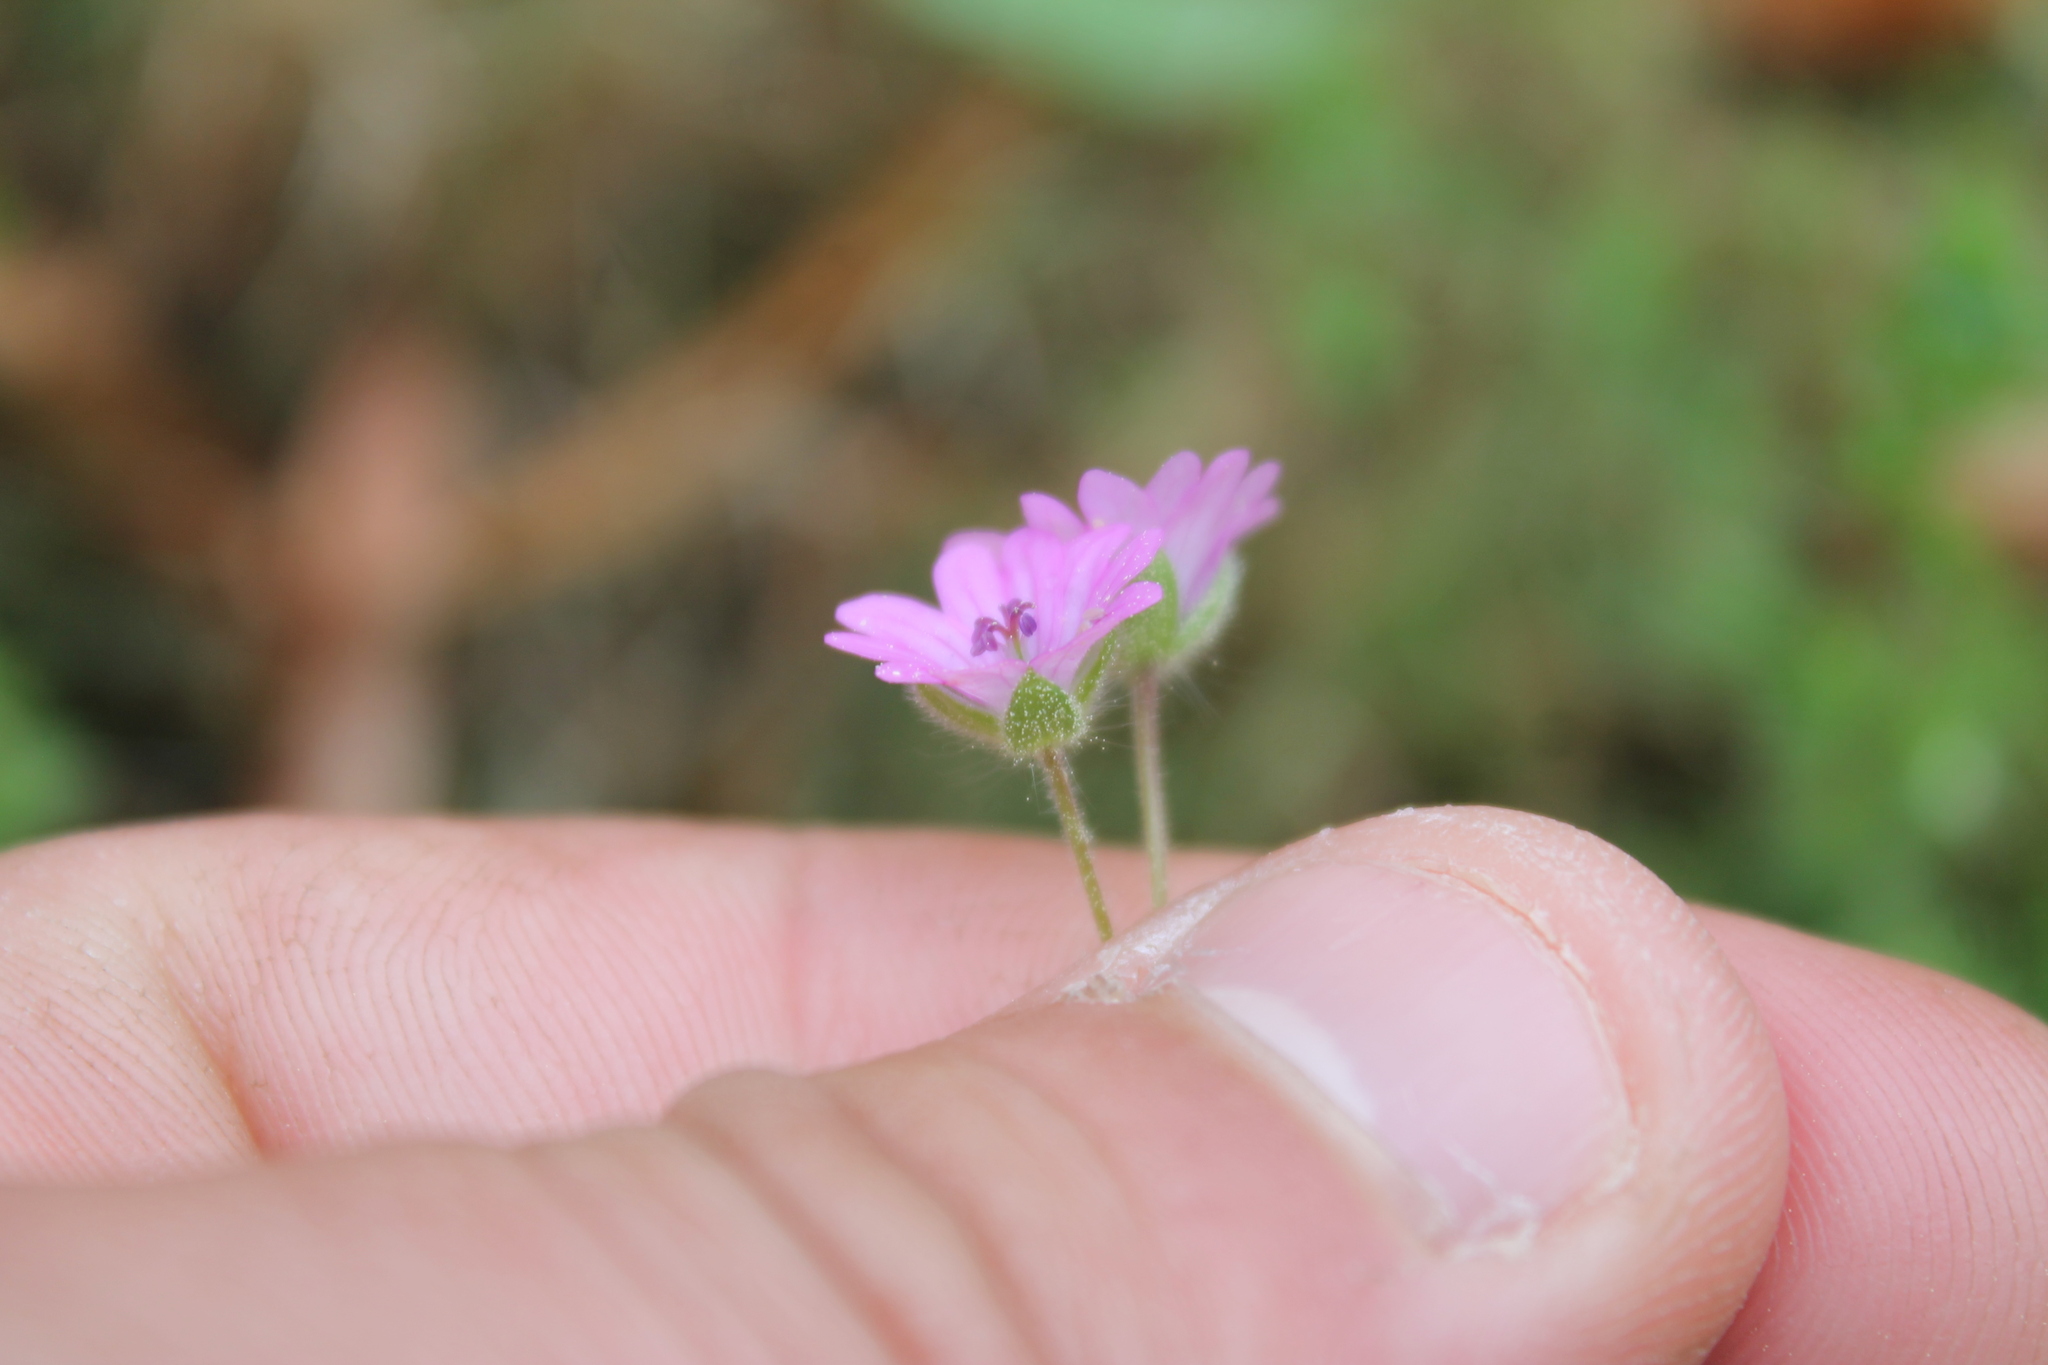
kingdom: Plantae
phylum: Tracheophyta
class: Magnoliopsida
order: Geraniales
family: Geraniaceae
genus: Geranium
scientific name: Geranium molle
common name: Dove's-foot crane's-bill
